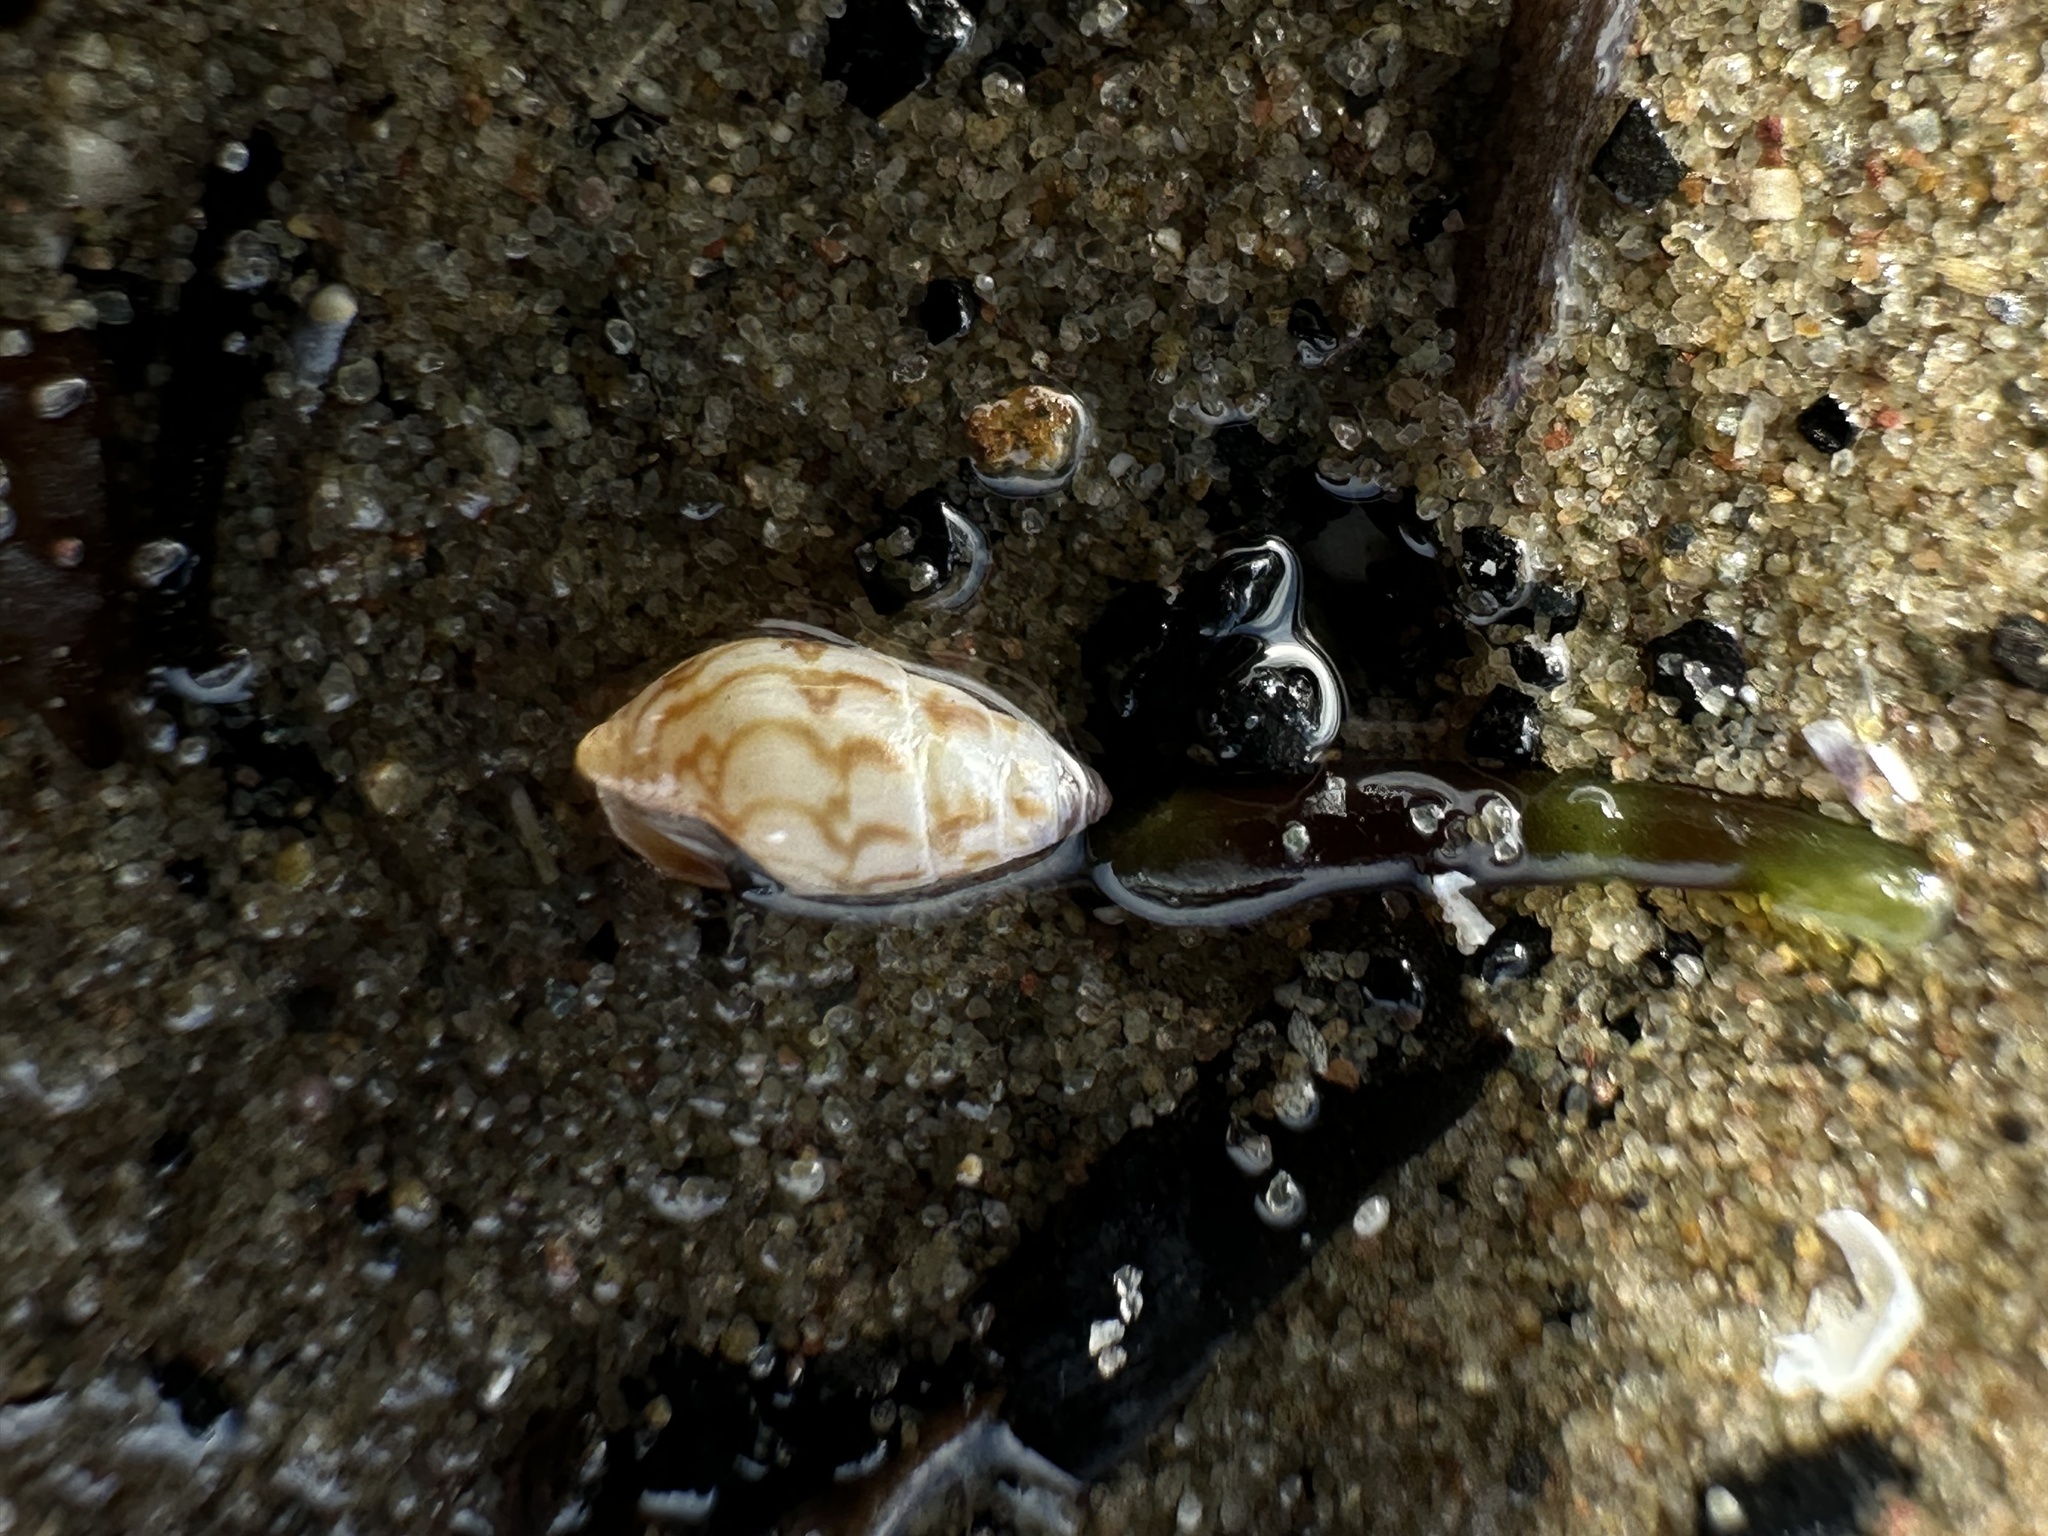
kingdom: Animalia
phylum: Mollusca
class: Gastropoda
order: Neogastropoda
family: Columbellidae
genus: Astyris
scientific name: Astyris lunata
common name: Lunar dovesnail
